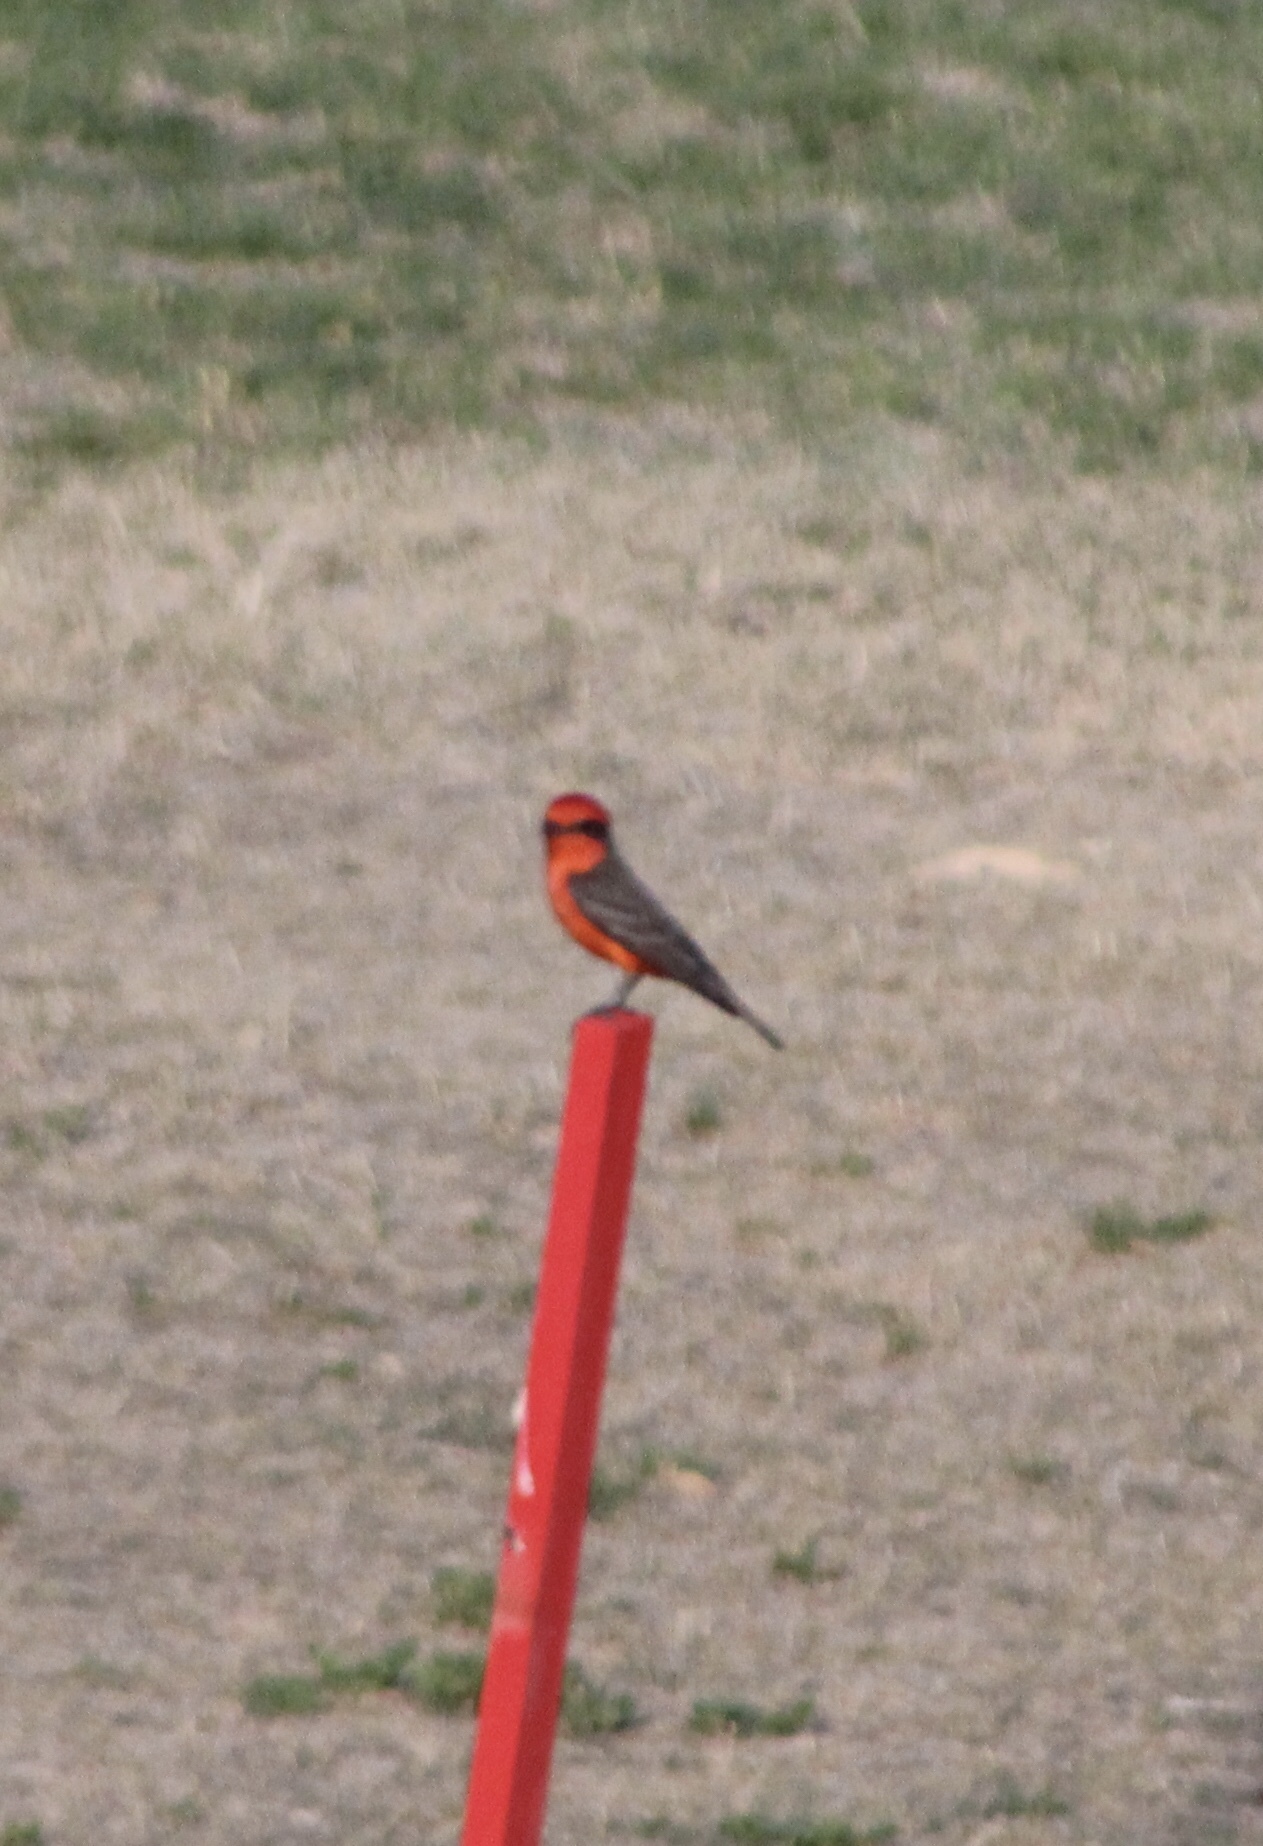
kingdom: Animalia
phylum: Chordata
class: Aves
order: Passeriformes
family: Tyrannidae
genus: Pyrocephalus
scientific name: Pyrocephalus rubinus
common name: Vermilion flycatcher
